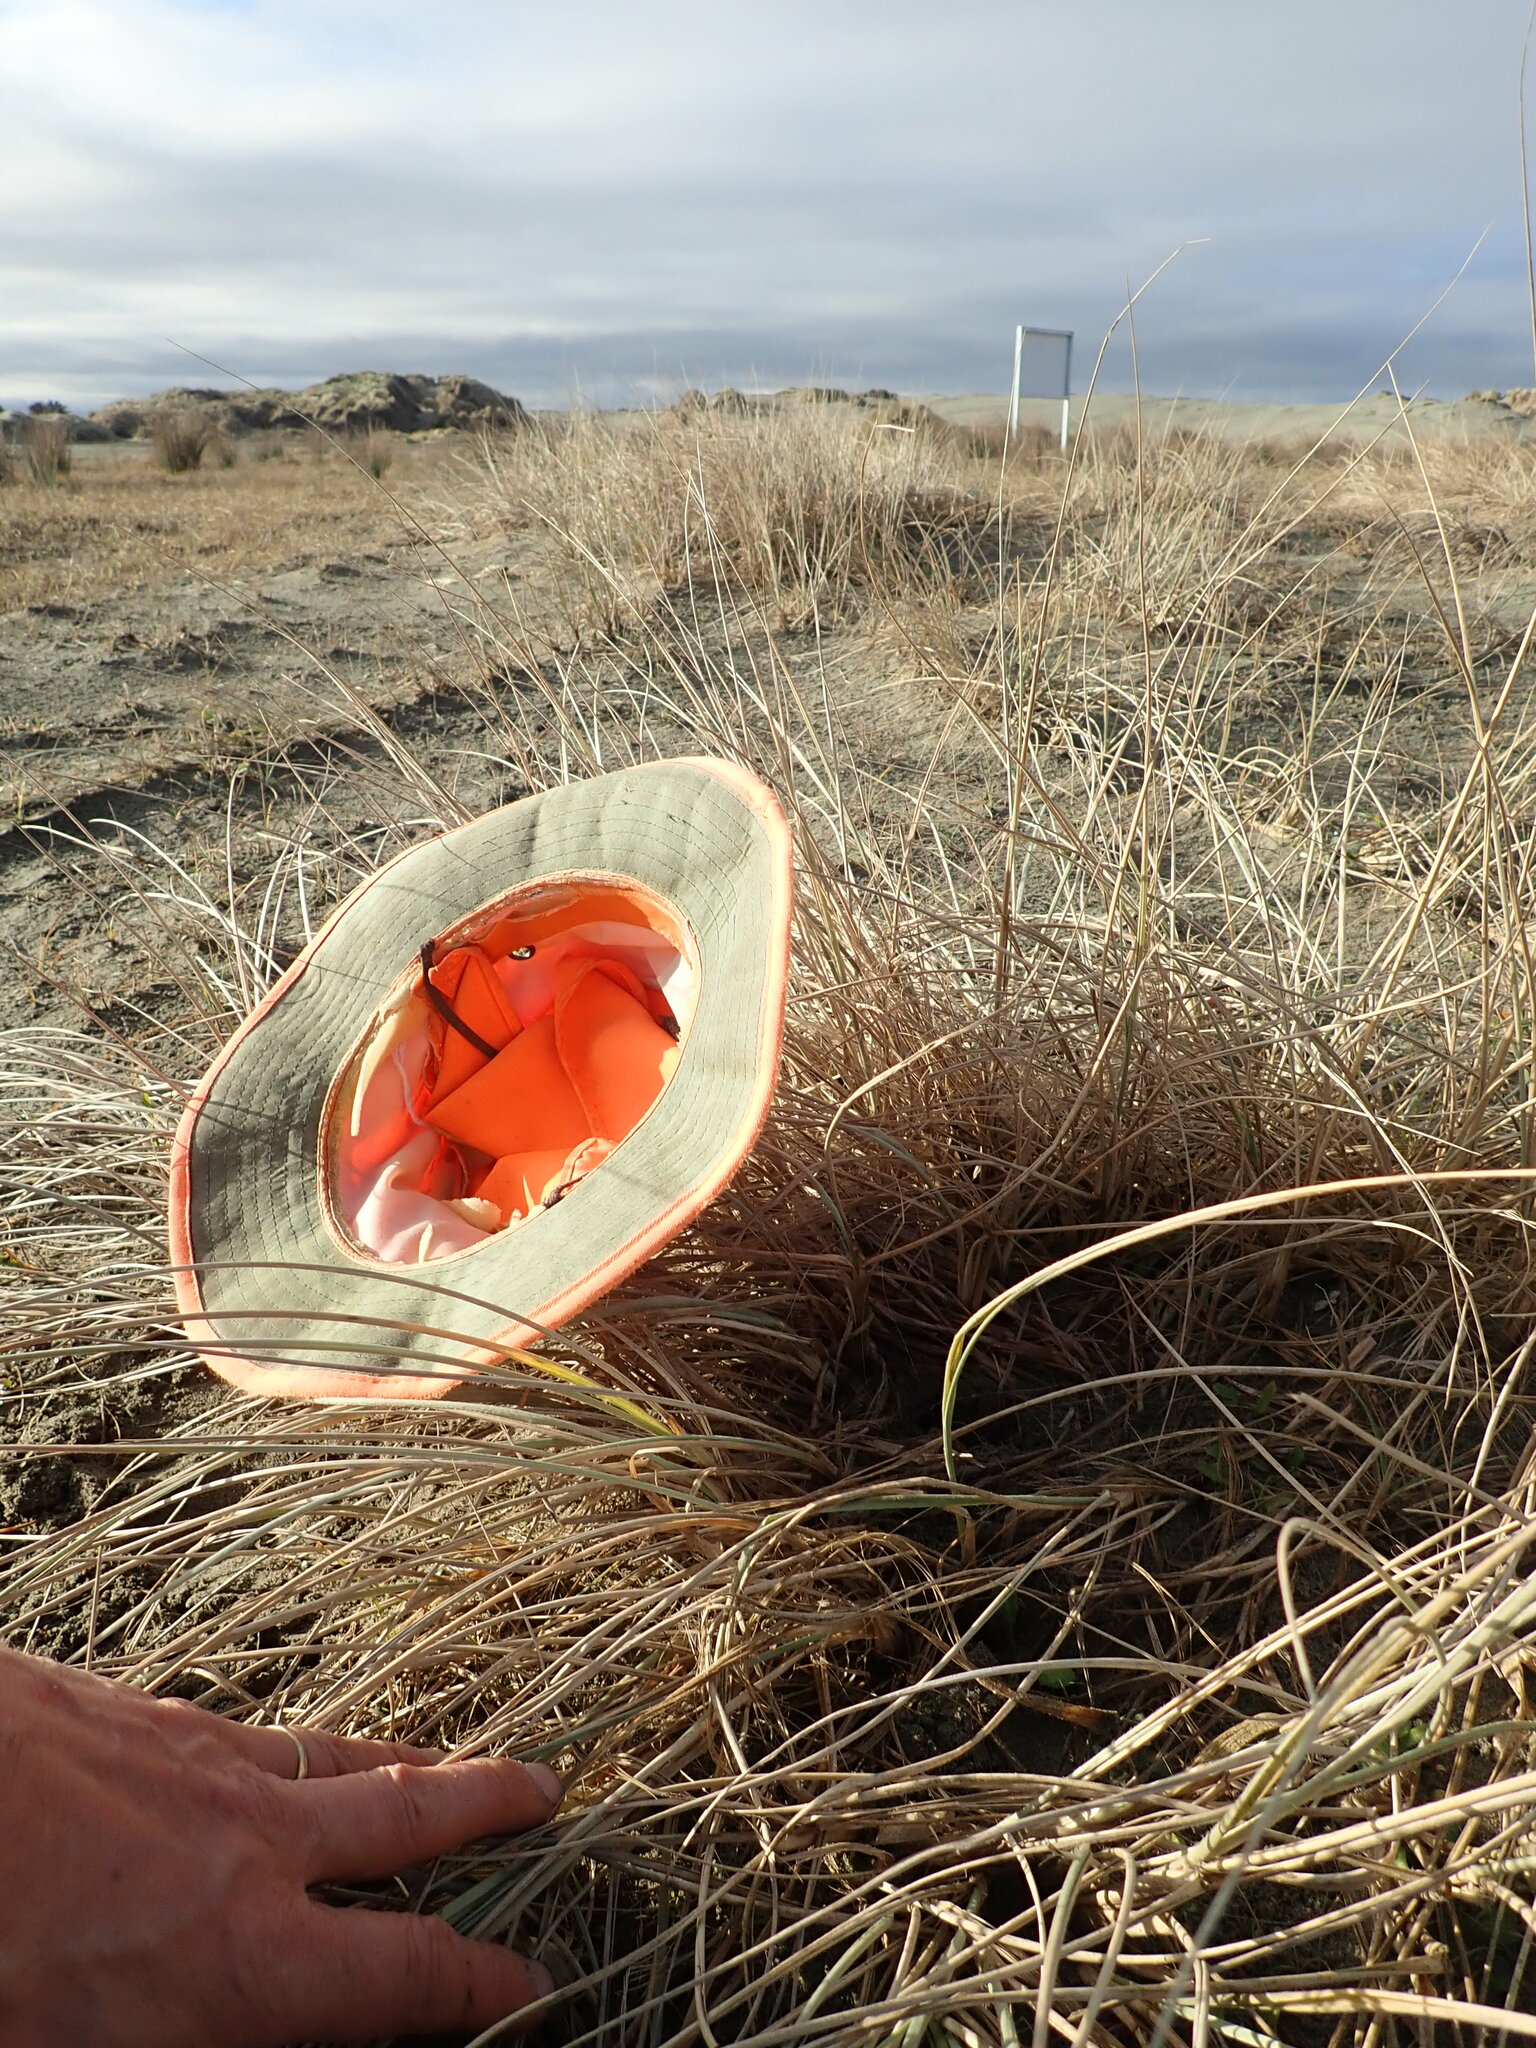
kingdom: Plantae
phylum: Tracheophyta
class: Magnoliopsida
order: Asterales
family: Campanulaceae
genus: Lobelia
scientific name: Lobelia anceps
